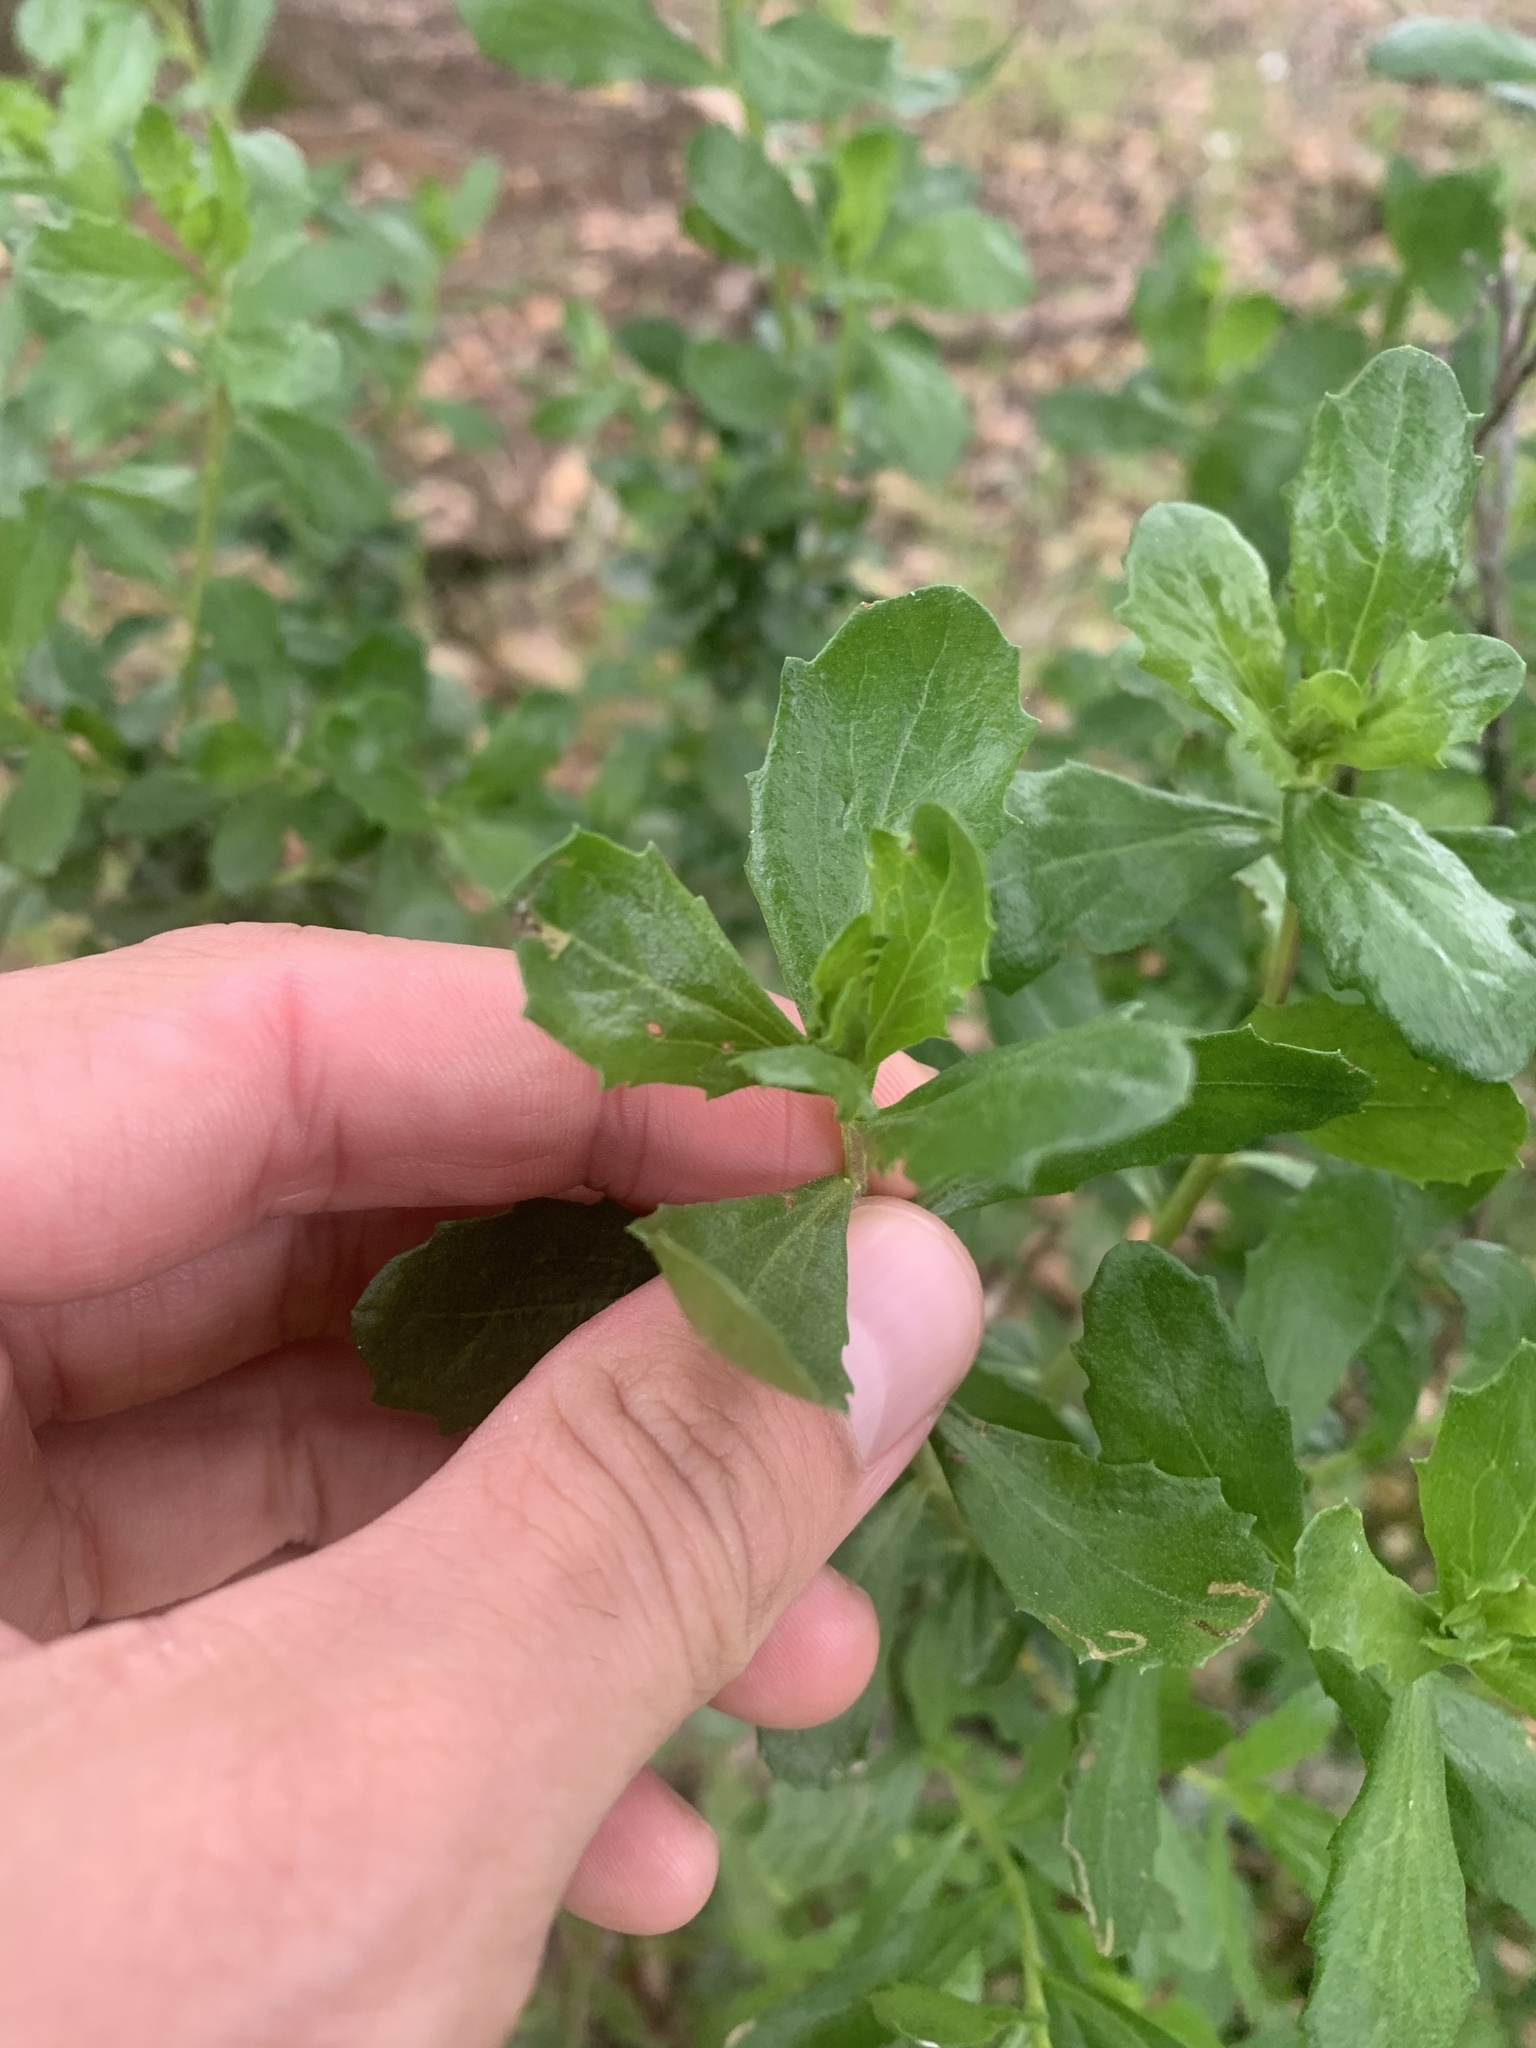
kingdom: Plantae
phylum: Tracheophyta
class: Magnoliopsida
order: Asterales
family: Asteraceae
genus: Baccharis
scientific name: Baccharis pilularis
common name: Coyotebrush
